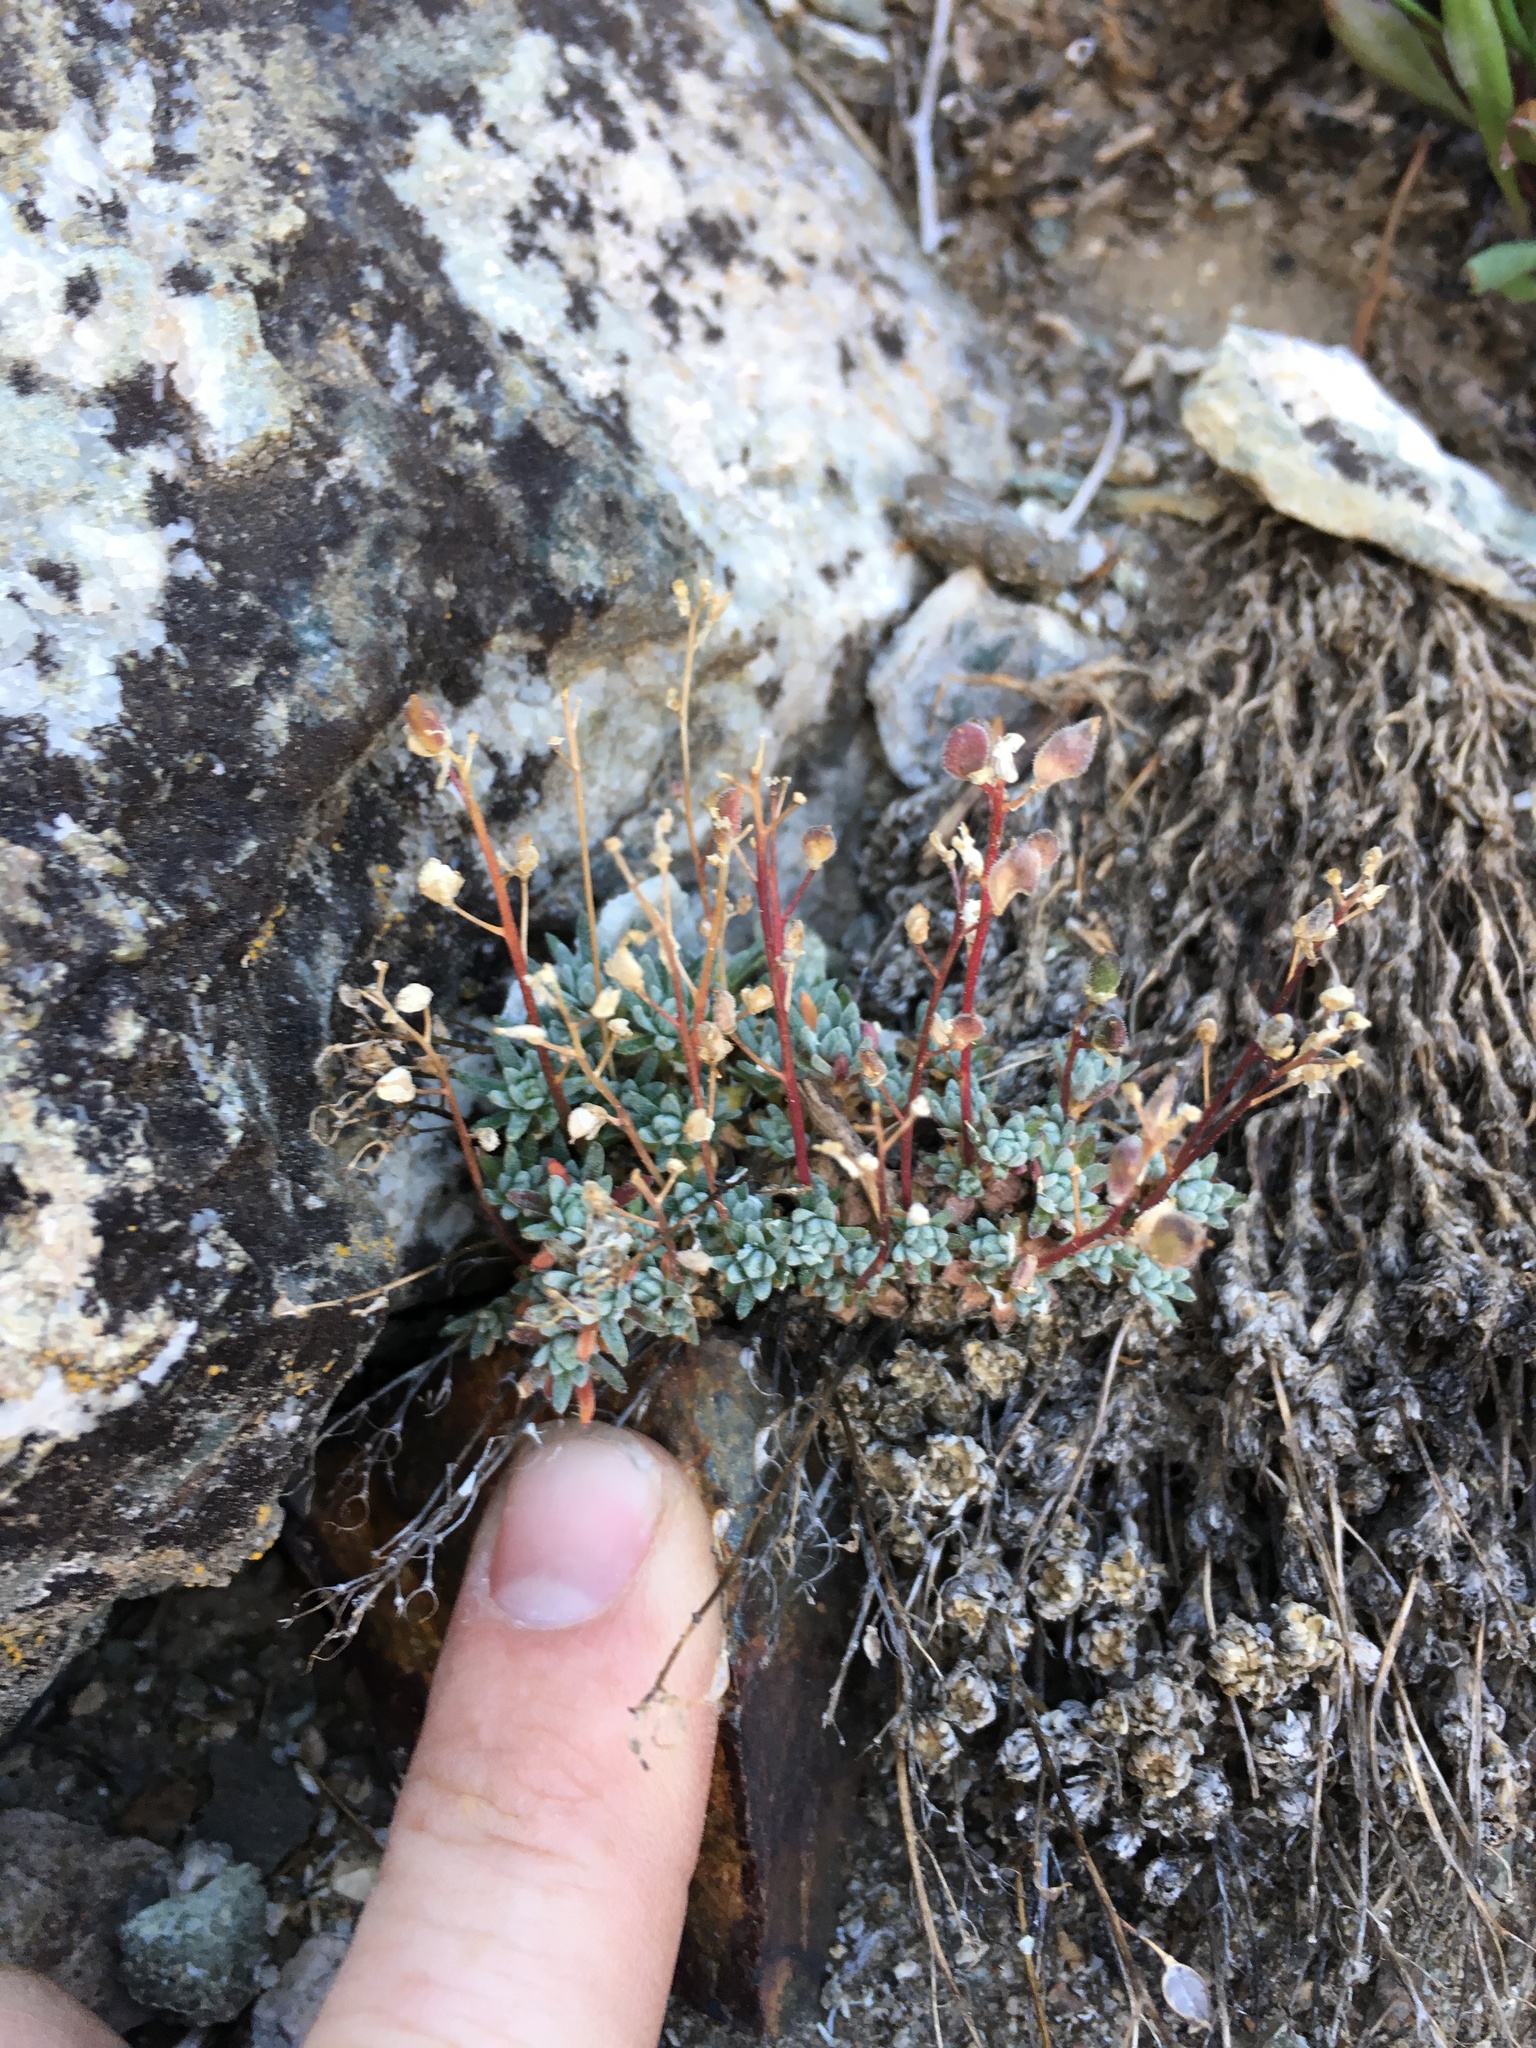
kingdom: Plantae
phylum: Tracheophyta
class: Magnoliopsida
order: Brassicales
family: Brassicaceae
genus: Draba
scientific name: Draba oligosperma
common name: Few-seed draba
